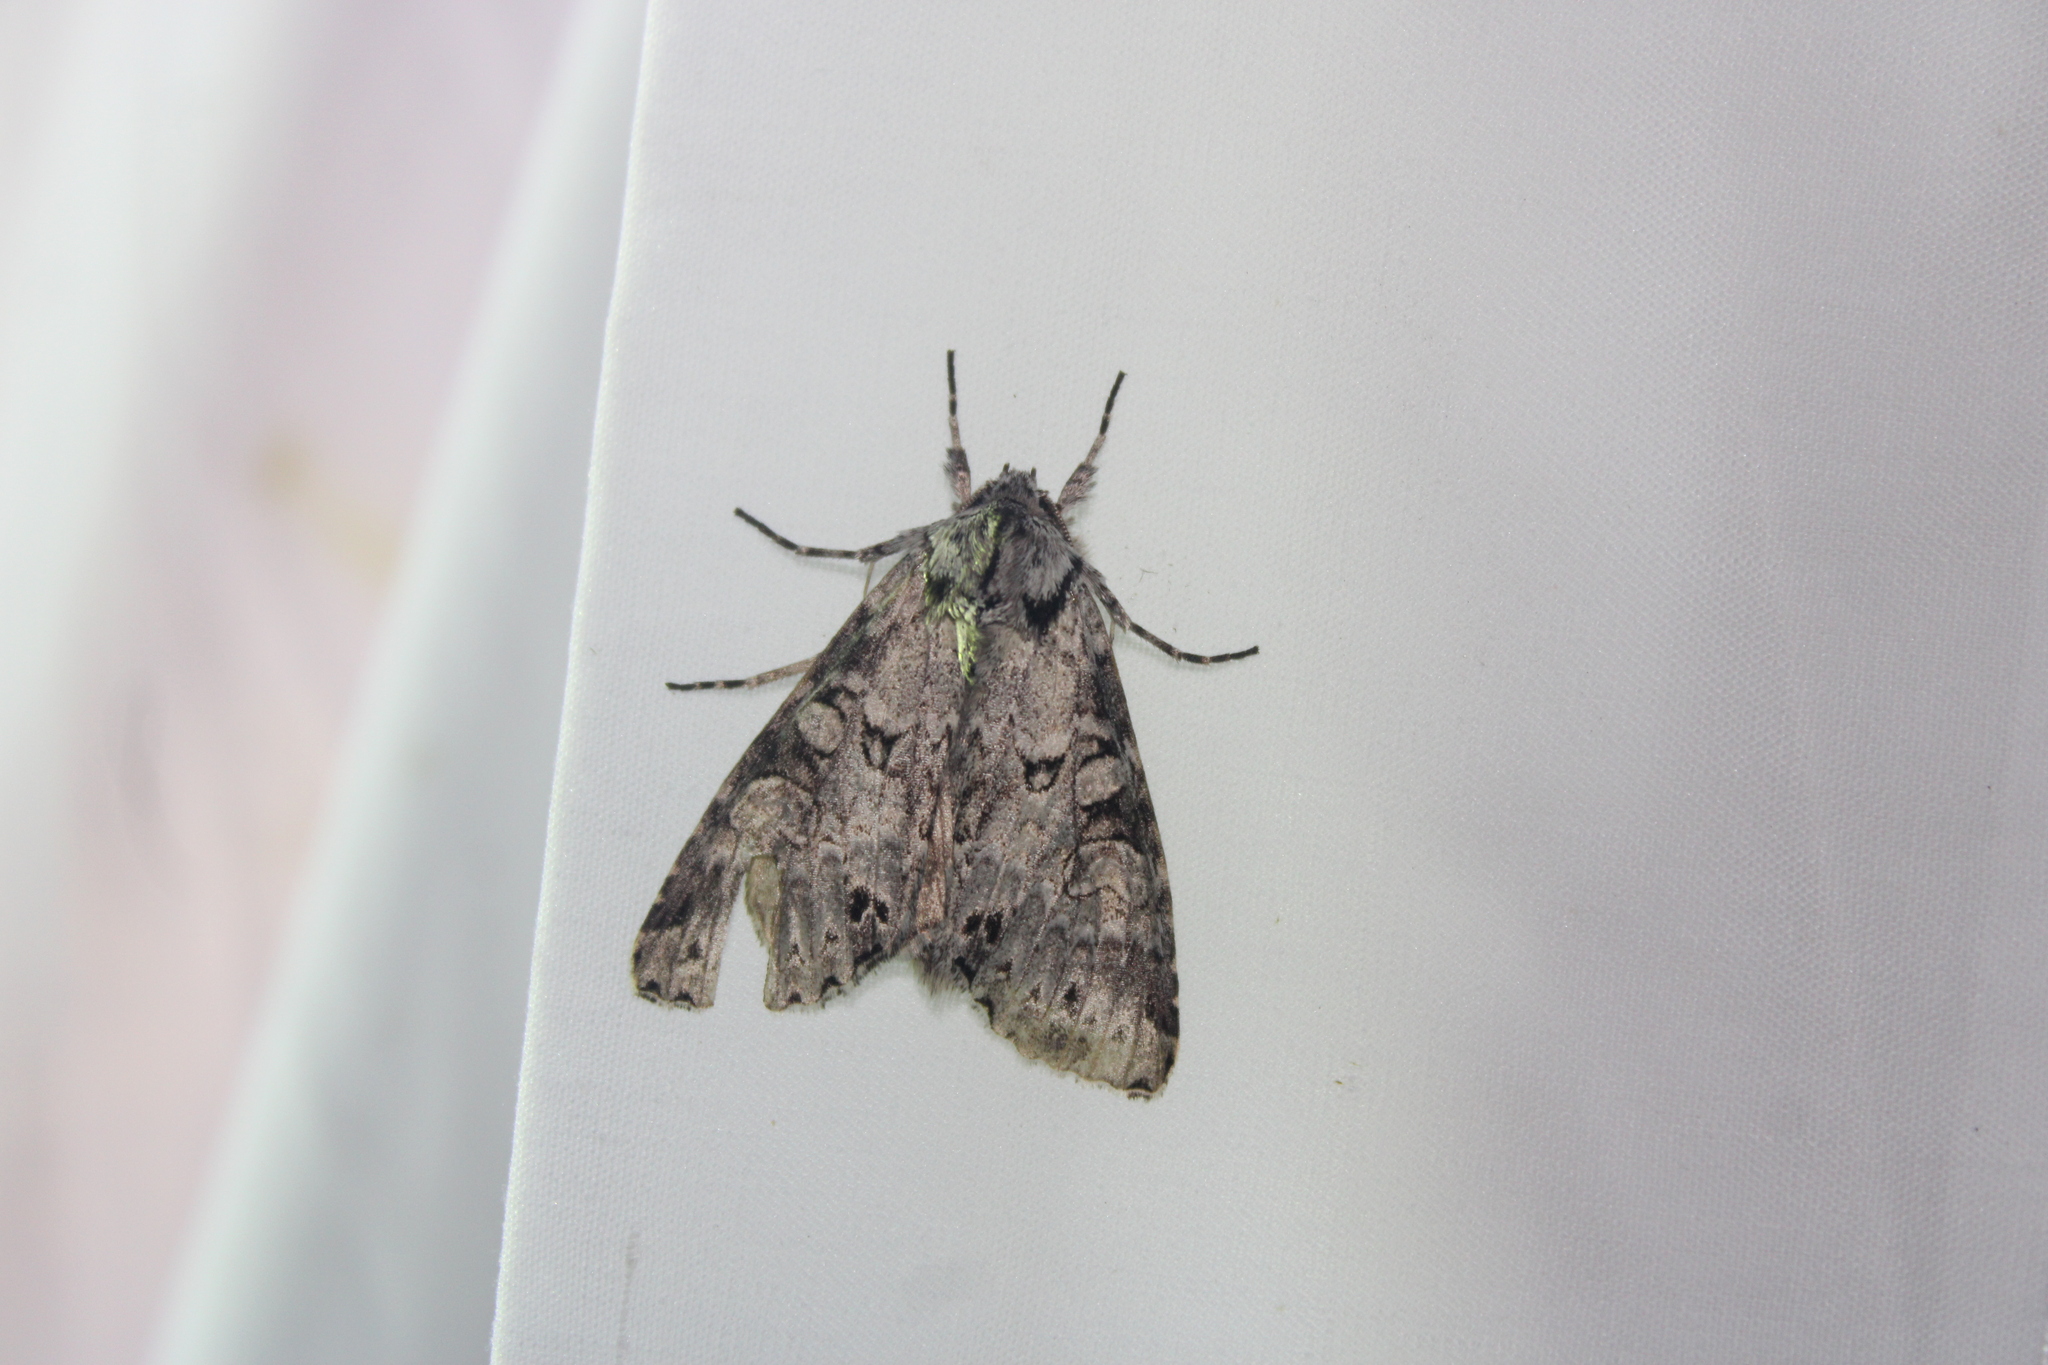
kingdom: Animalia
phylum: Arthropoda
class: Insecta
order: Lepidoptera
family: Noctuidae
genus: Polia
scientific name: Polia nimbosa
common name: Stormy arches
